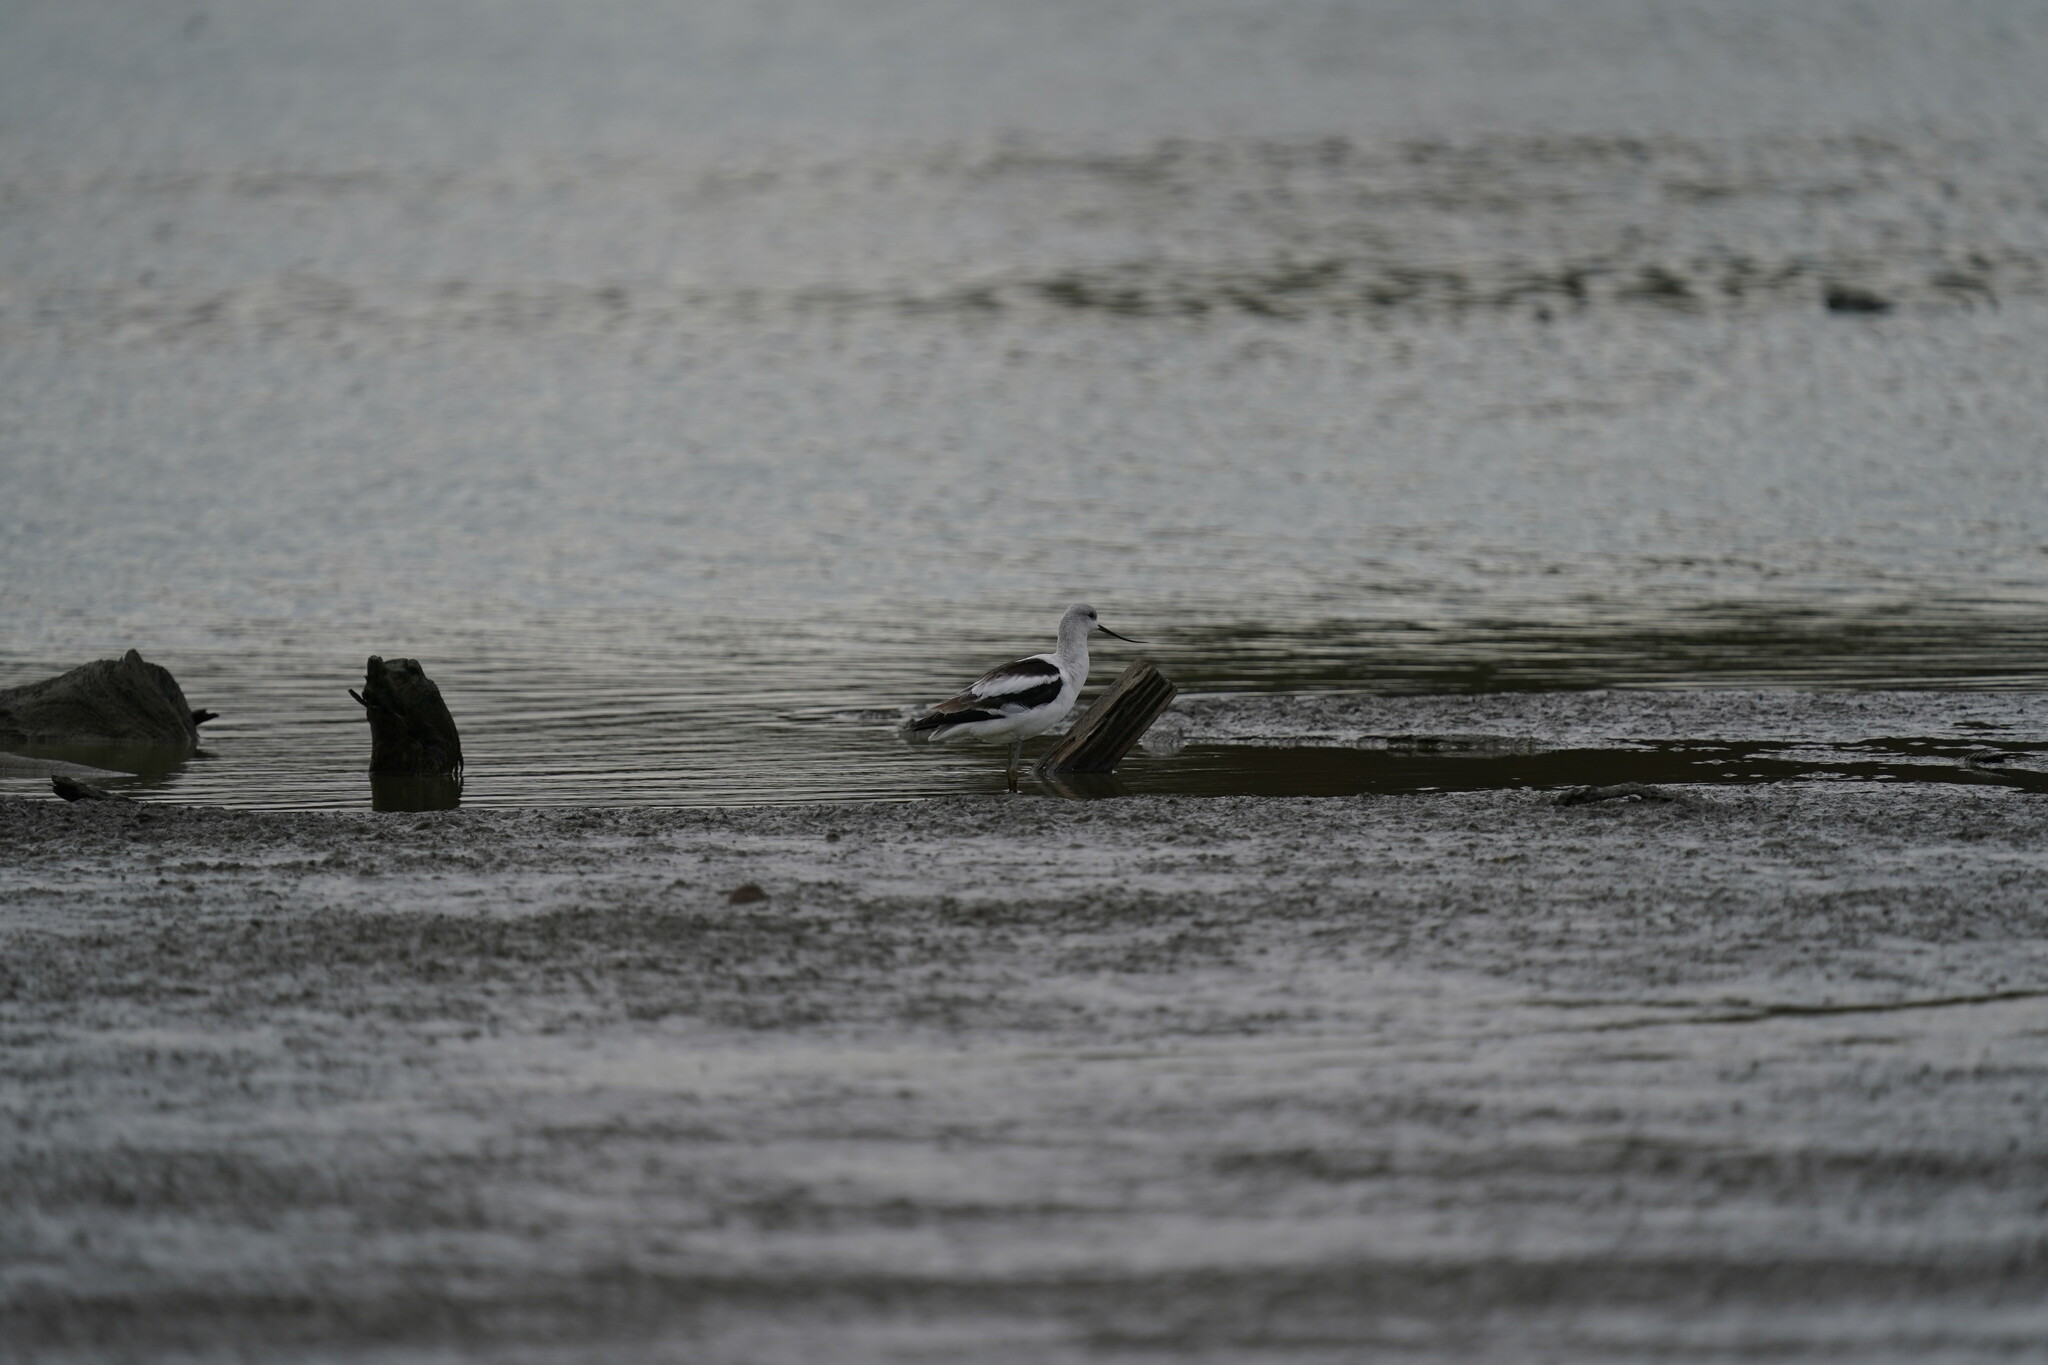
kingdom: Animalia
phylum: Chordata
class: Aves
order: Charadriiformes
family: Recurvirostridae
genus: Recurvirostra
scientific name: Recurvirostra americana
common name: American avocet
